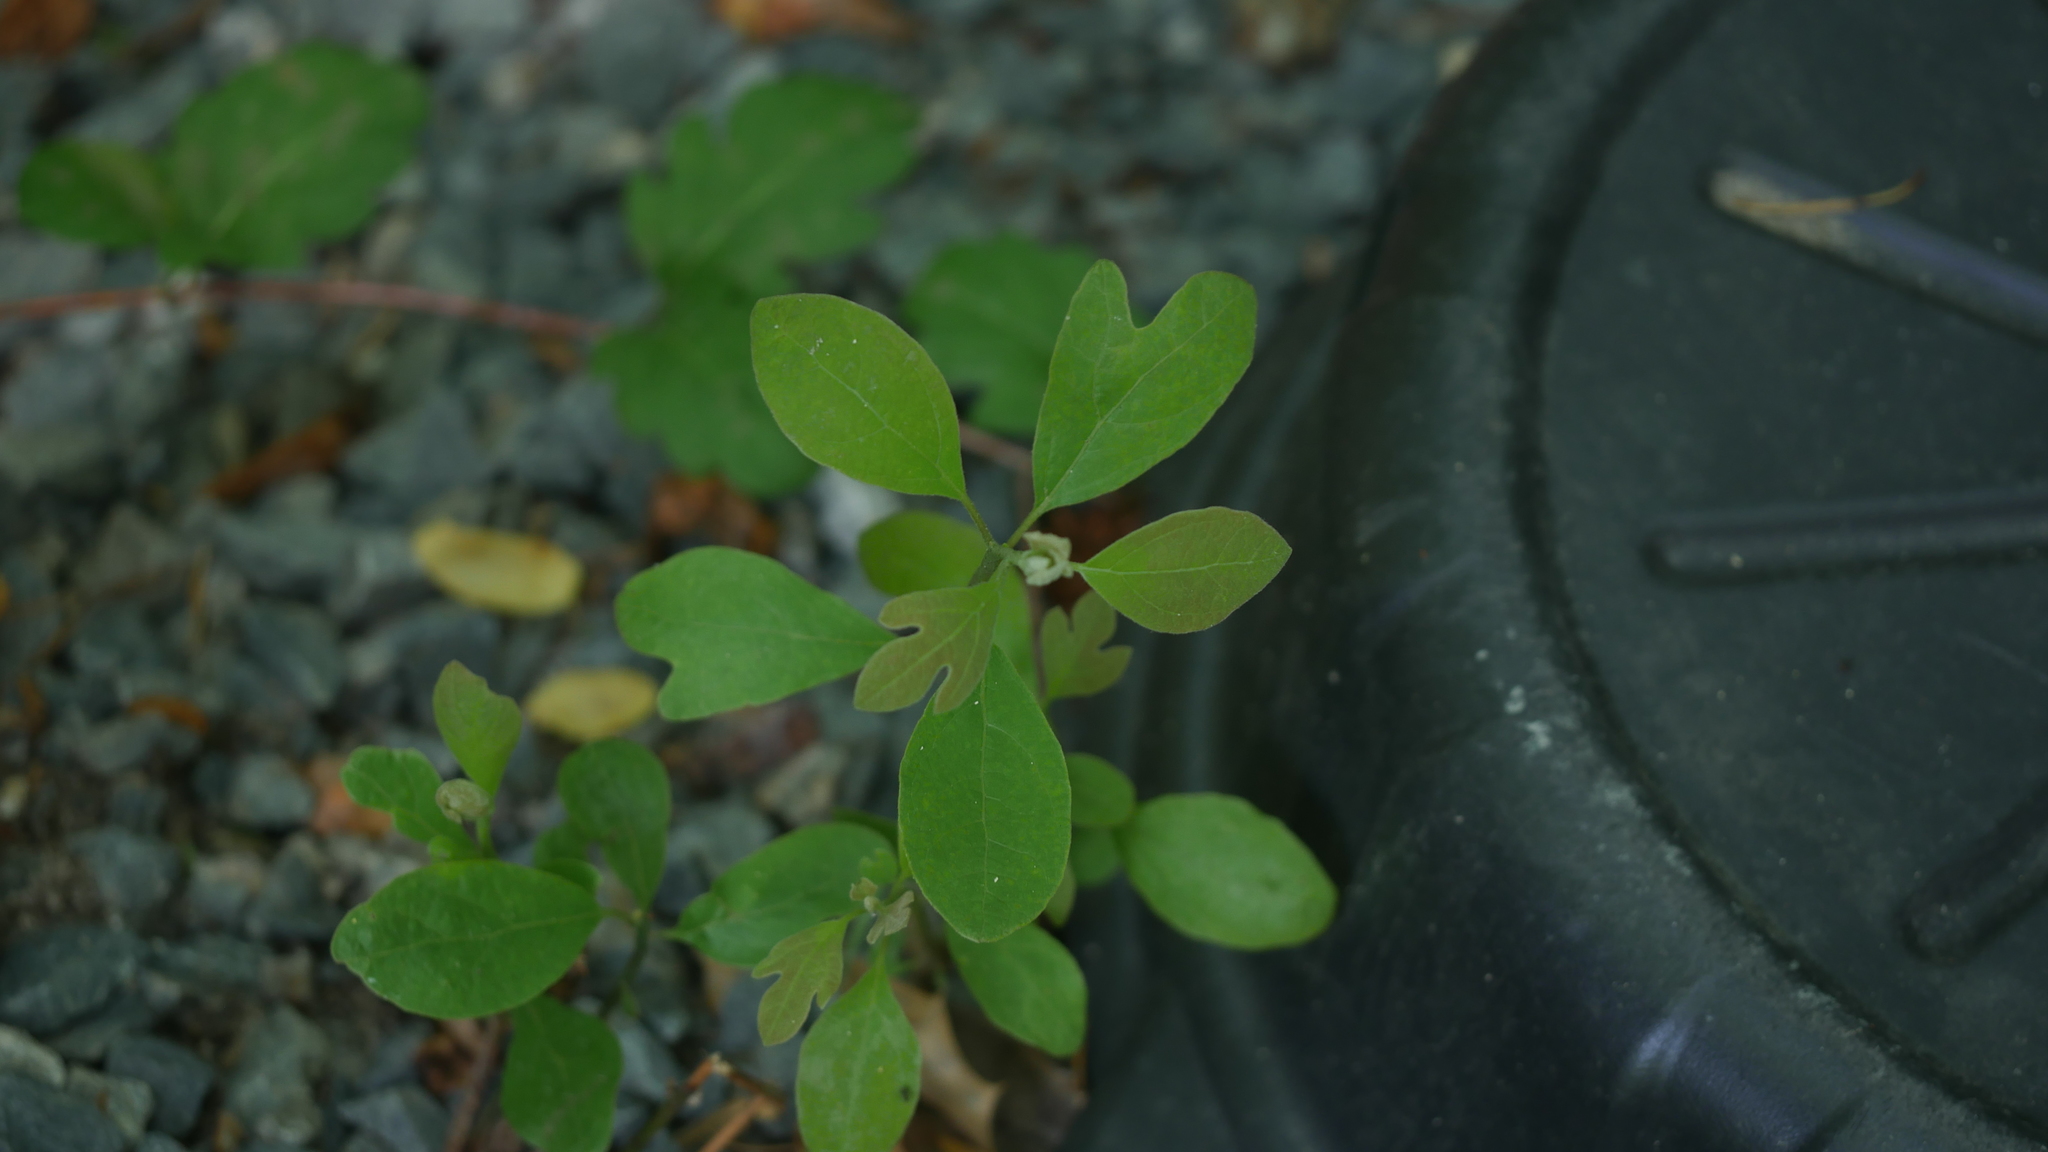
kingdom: Plantae
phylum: Tracheophyta
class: Magnoliopsida
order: Laurales
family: Lauraceae
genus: Sassafras
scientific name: Sassafras albidum
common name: Sassafras
